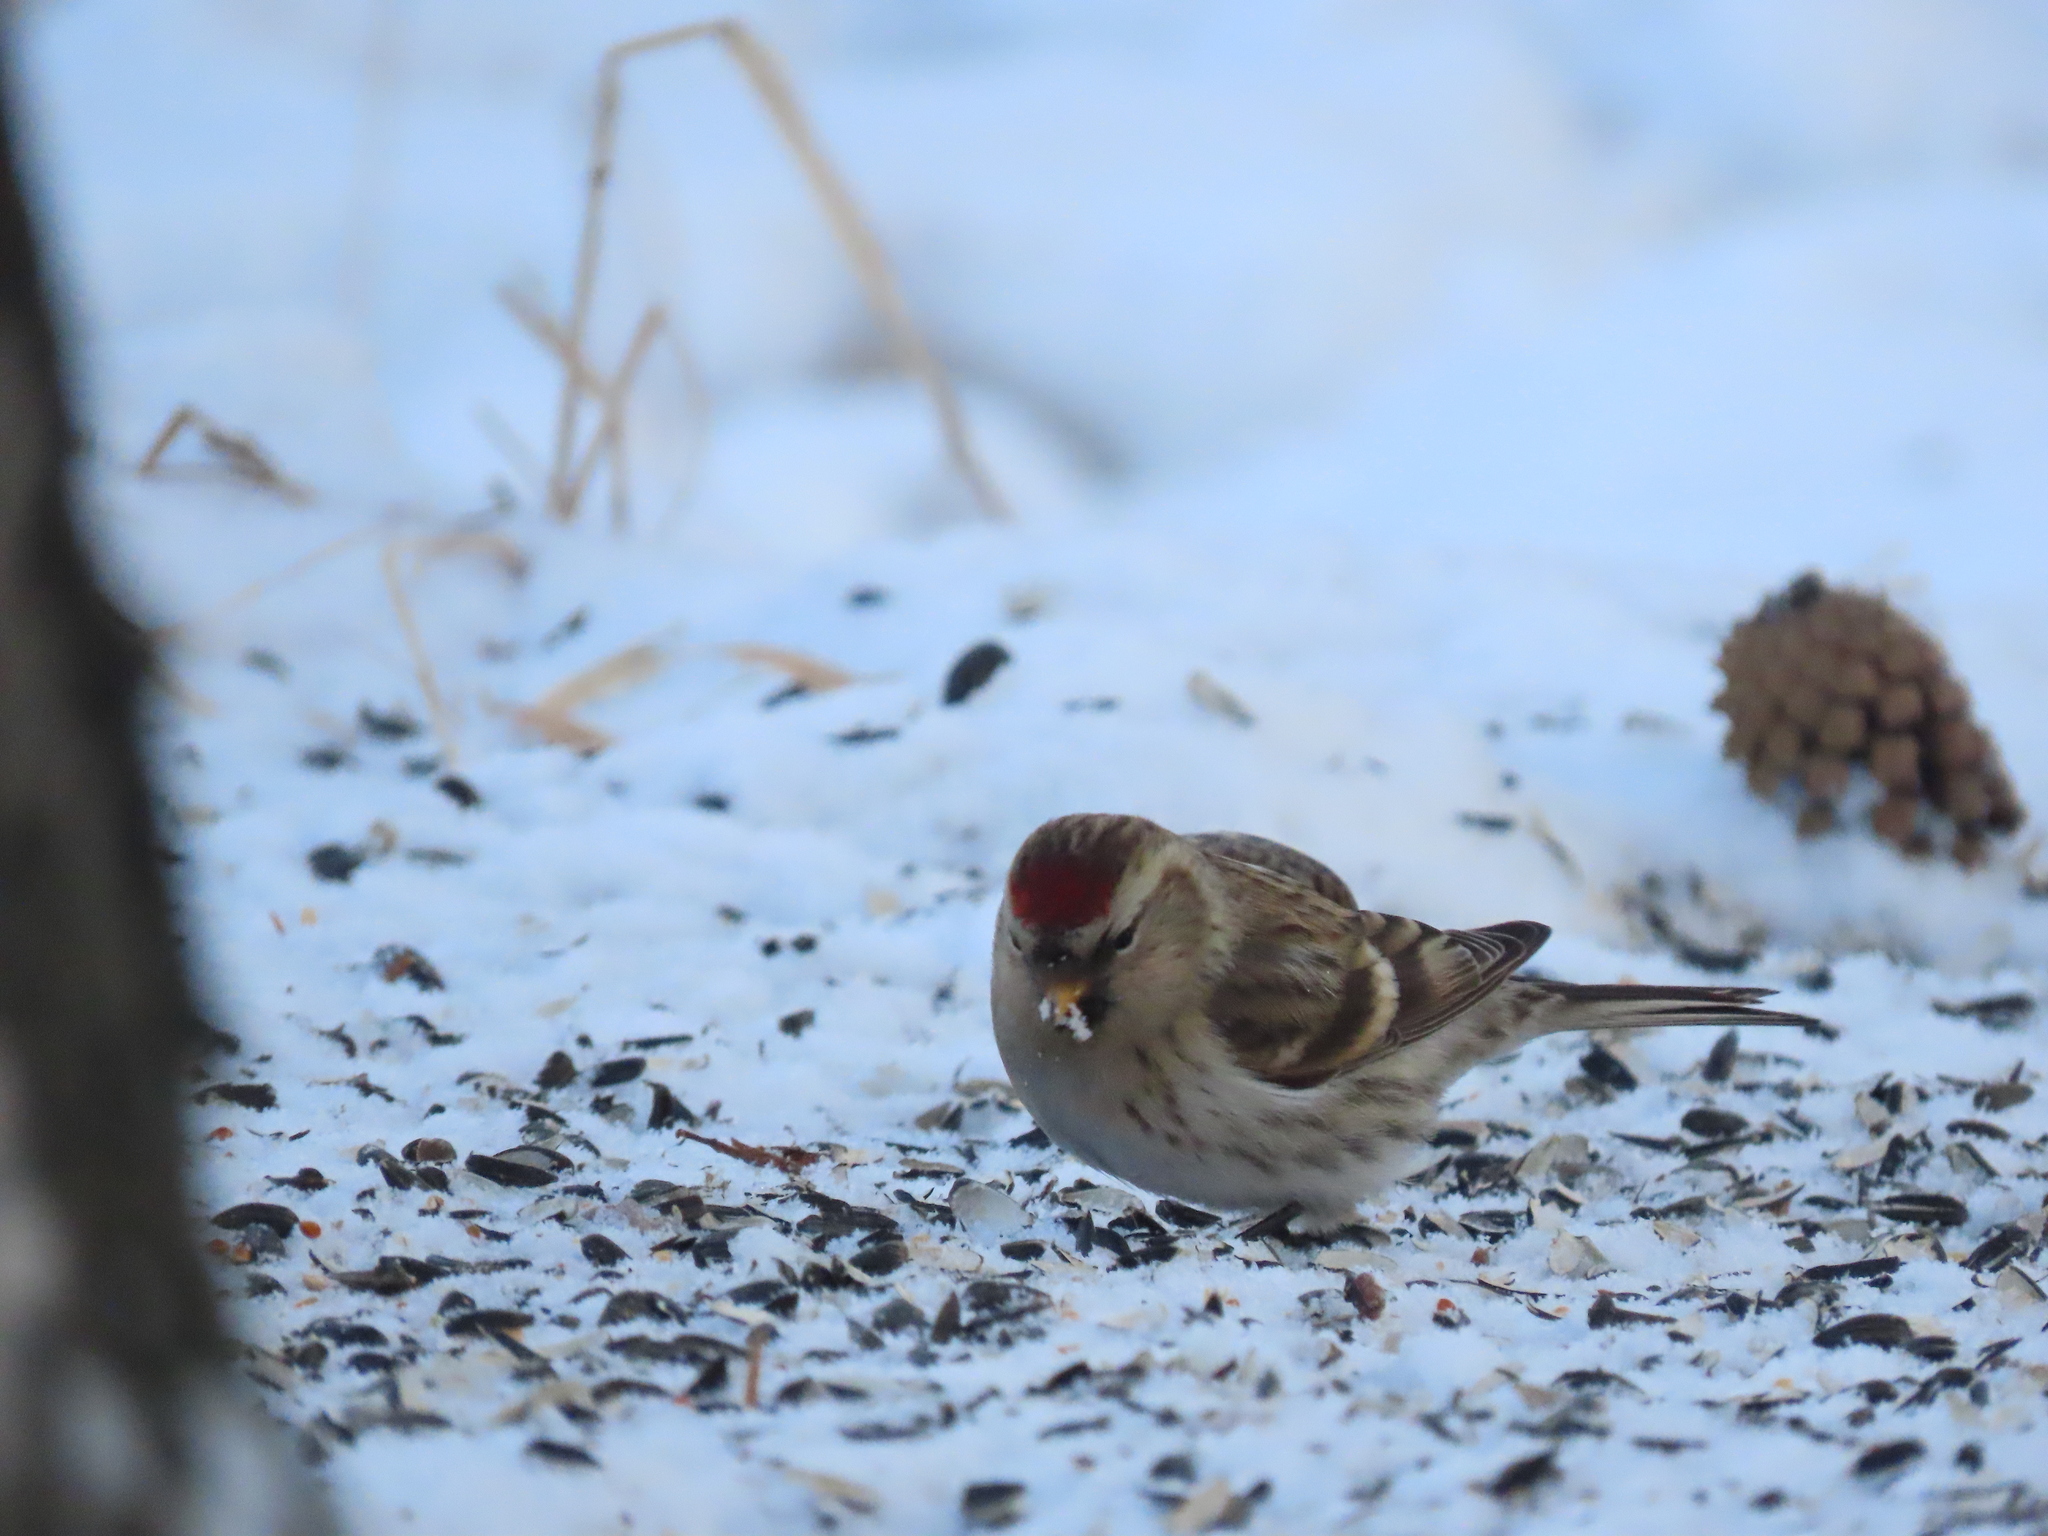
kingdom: Animalia
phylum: Chordata
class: Aves
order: Passeriformes
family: Fringillidae
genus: Acanthis
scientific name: Acanthis flammea
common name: Common redpoll
